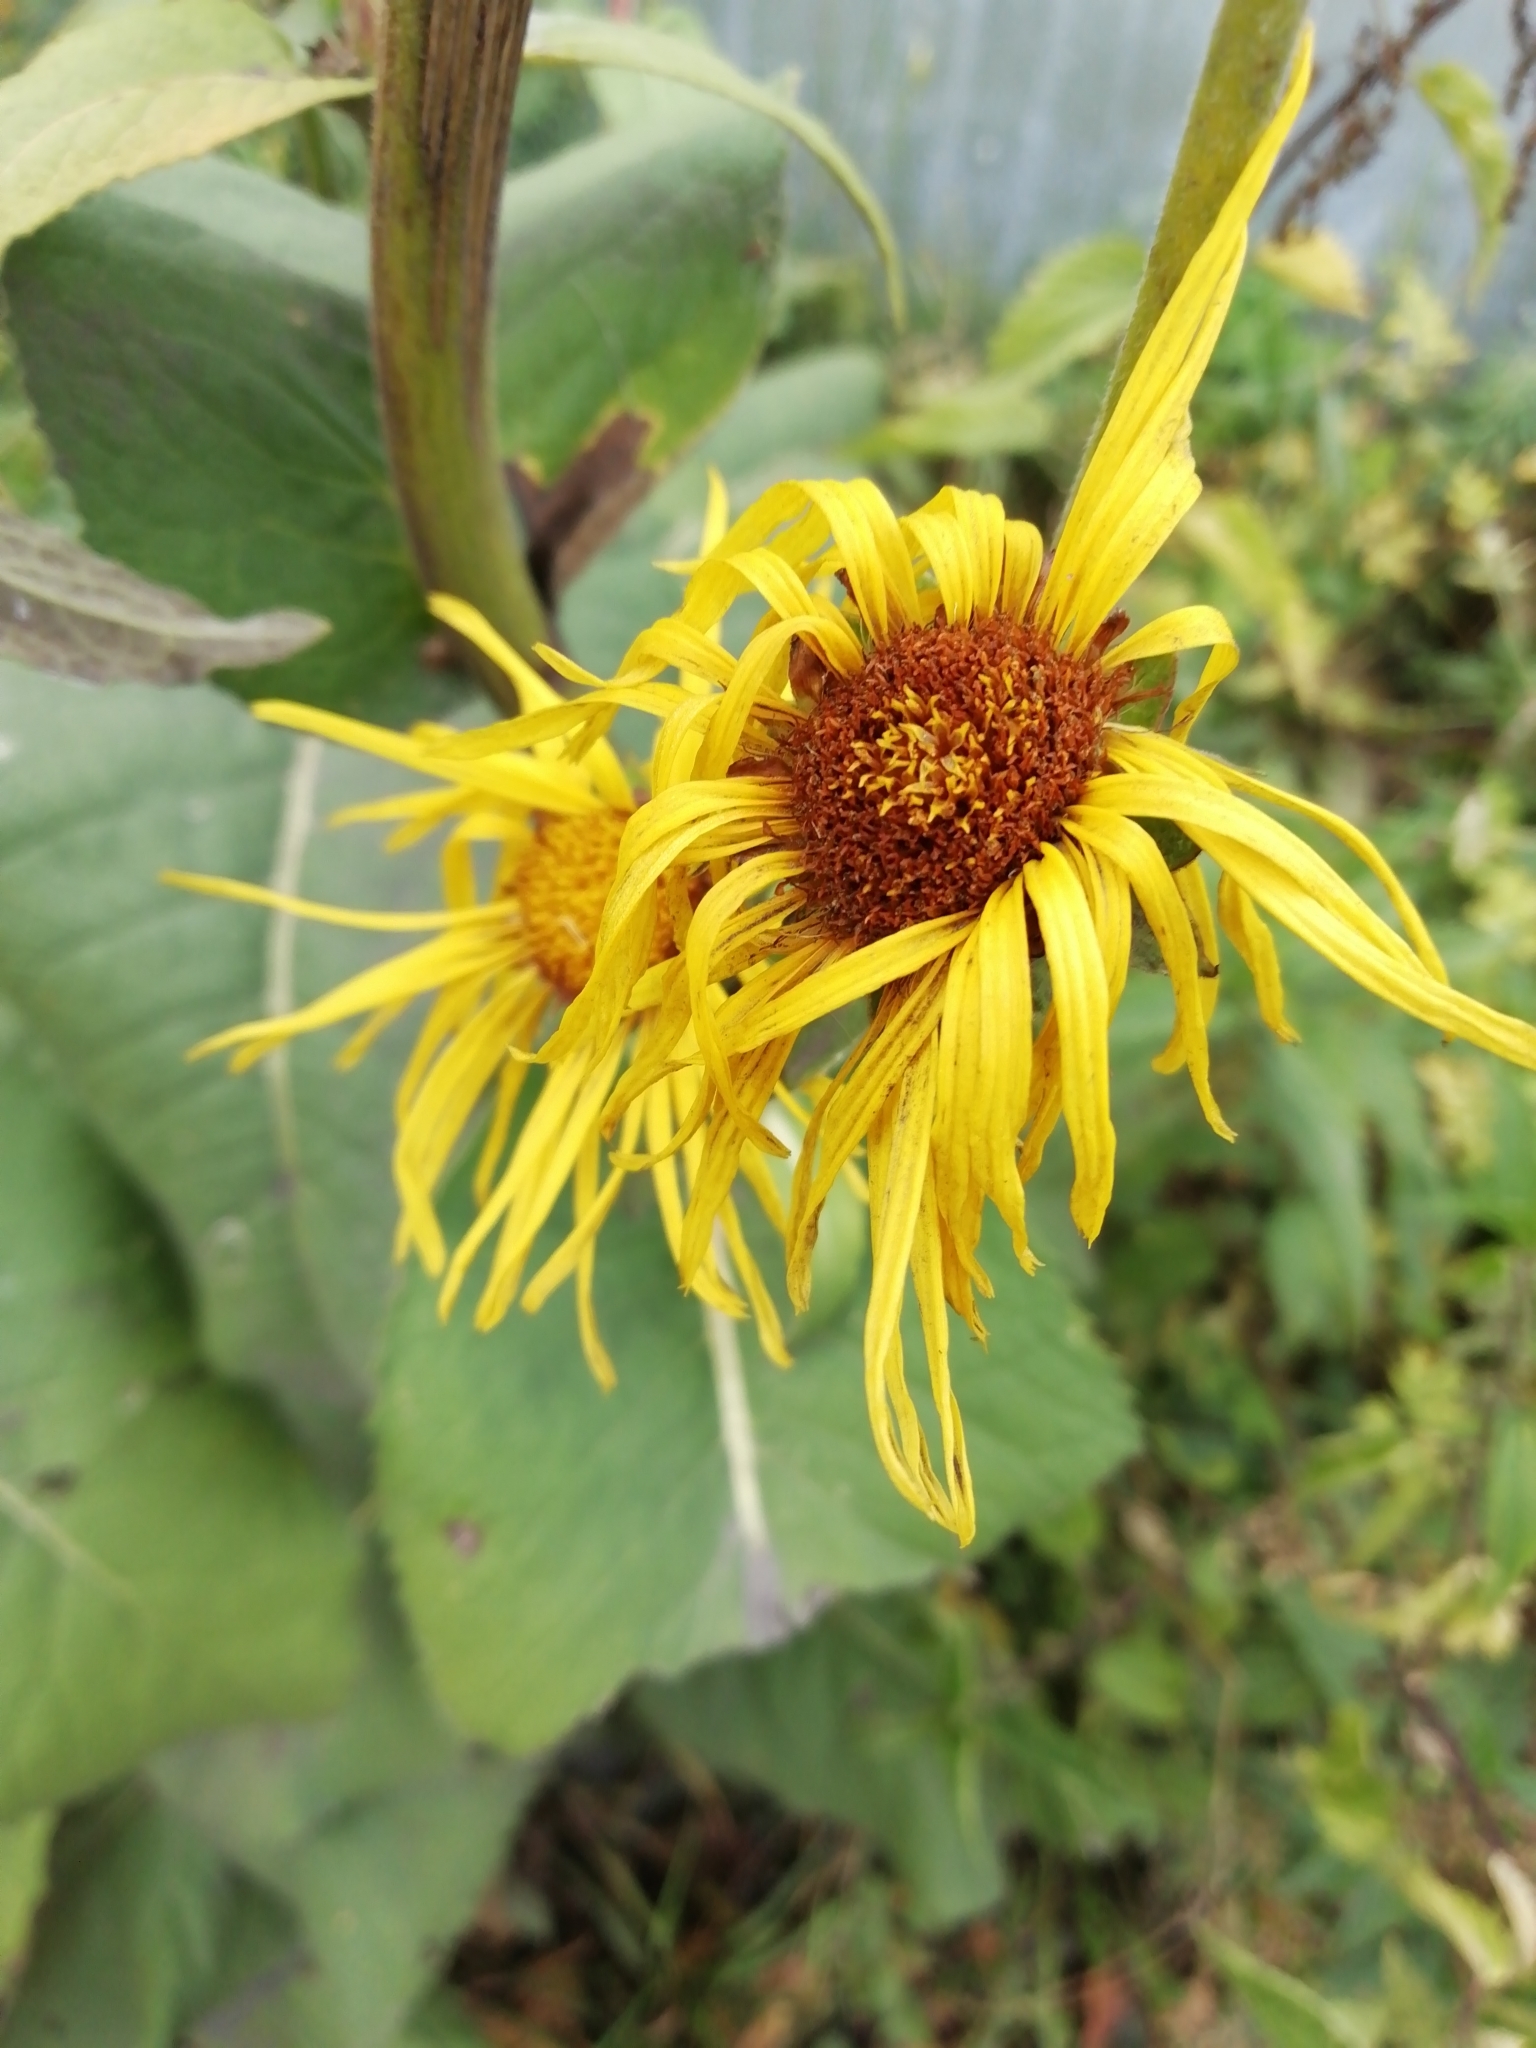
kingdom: Plantae
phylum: Tracheophyta
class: Magnoliopsida
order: Asterales
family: Asteraceae
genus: Inula
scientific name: Inula helenium
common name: Elecampane
